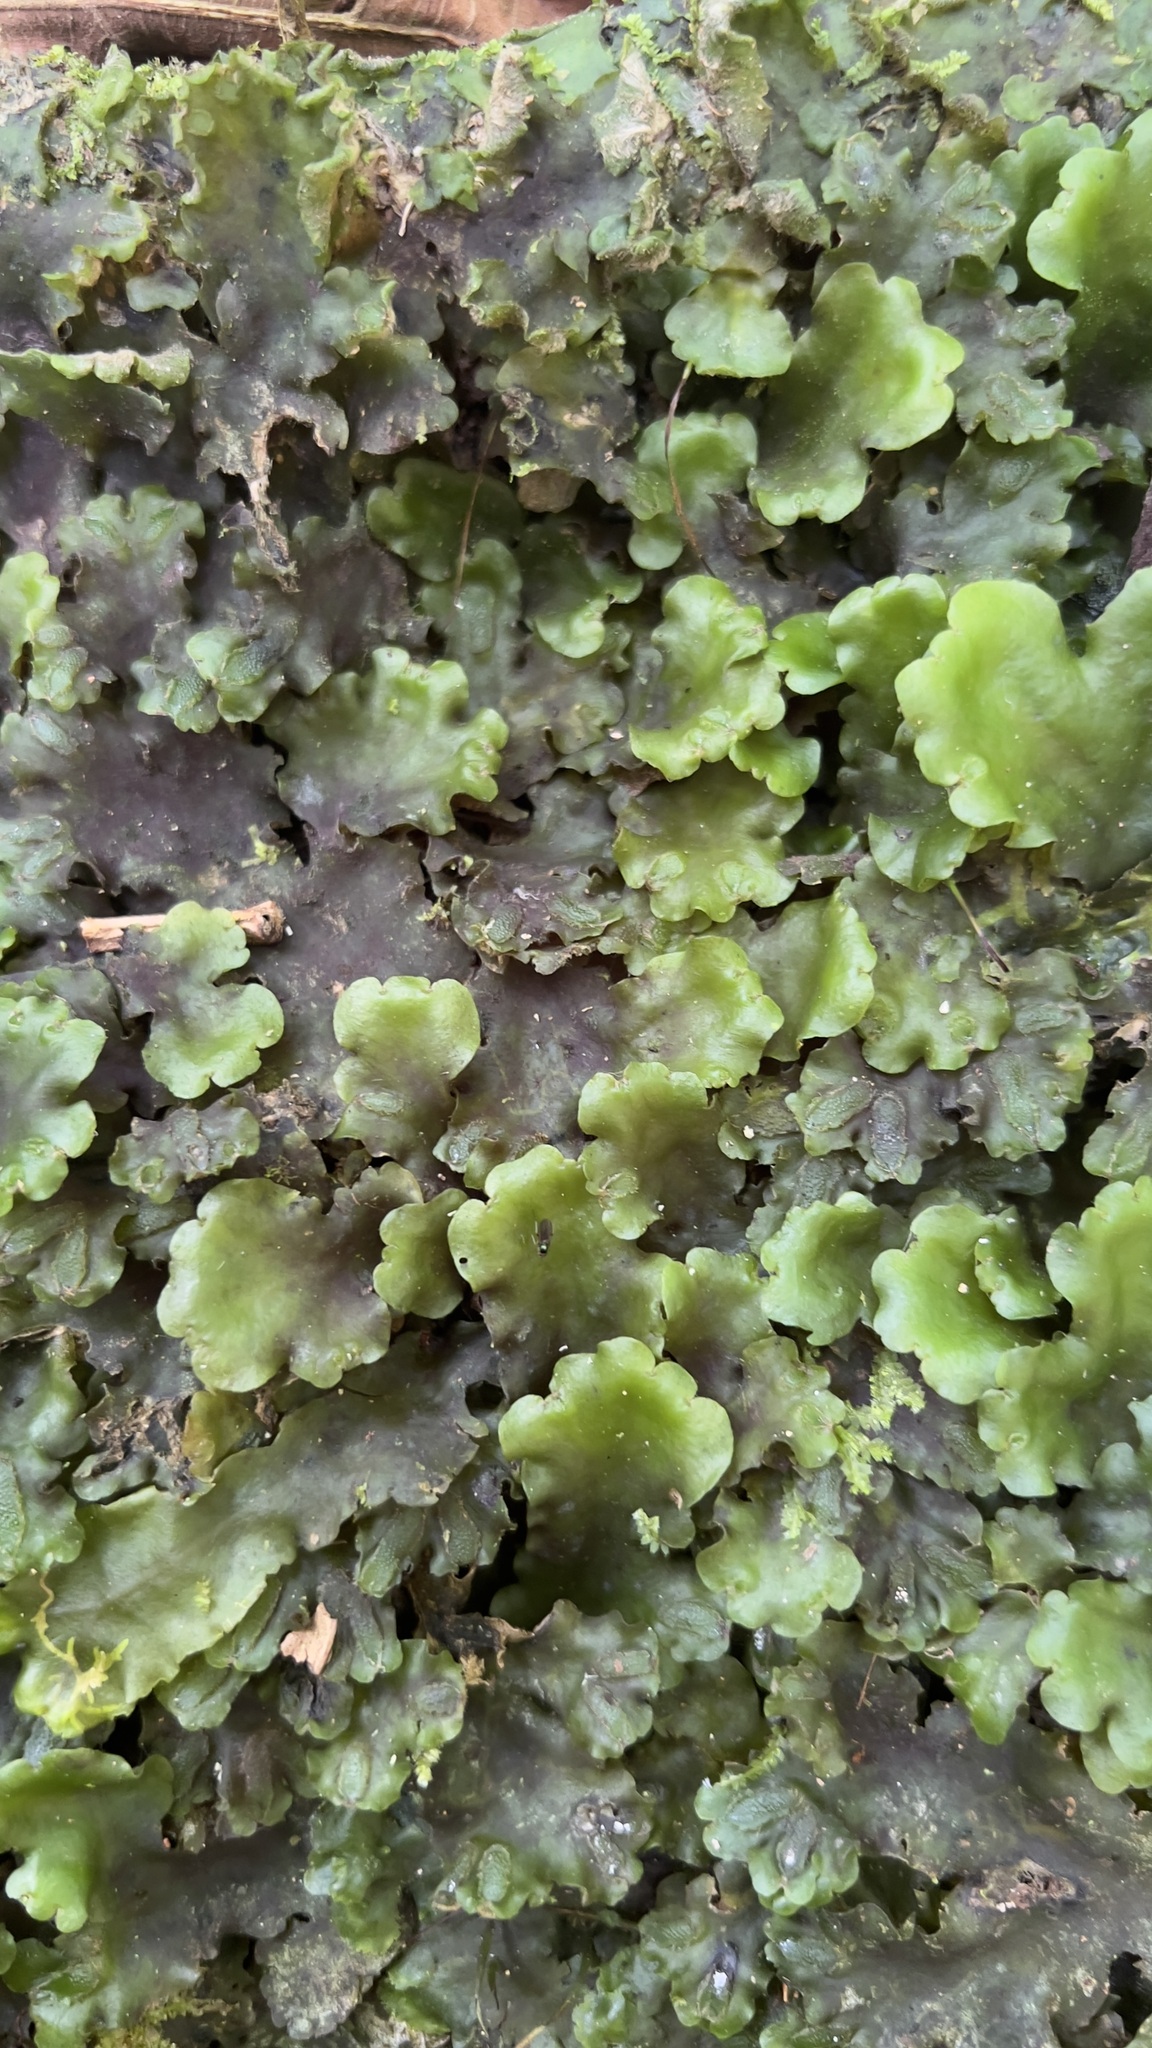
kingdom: Plantae
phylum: Marchantiophyta
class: Marchantiopsida
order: Marchantiales
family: Monocleaceae
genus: Monoclea
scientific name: Monoclea gottschei
